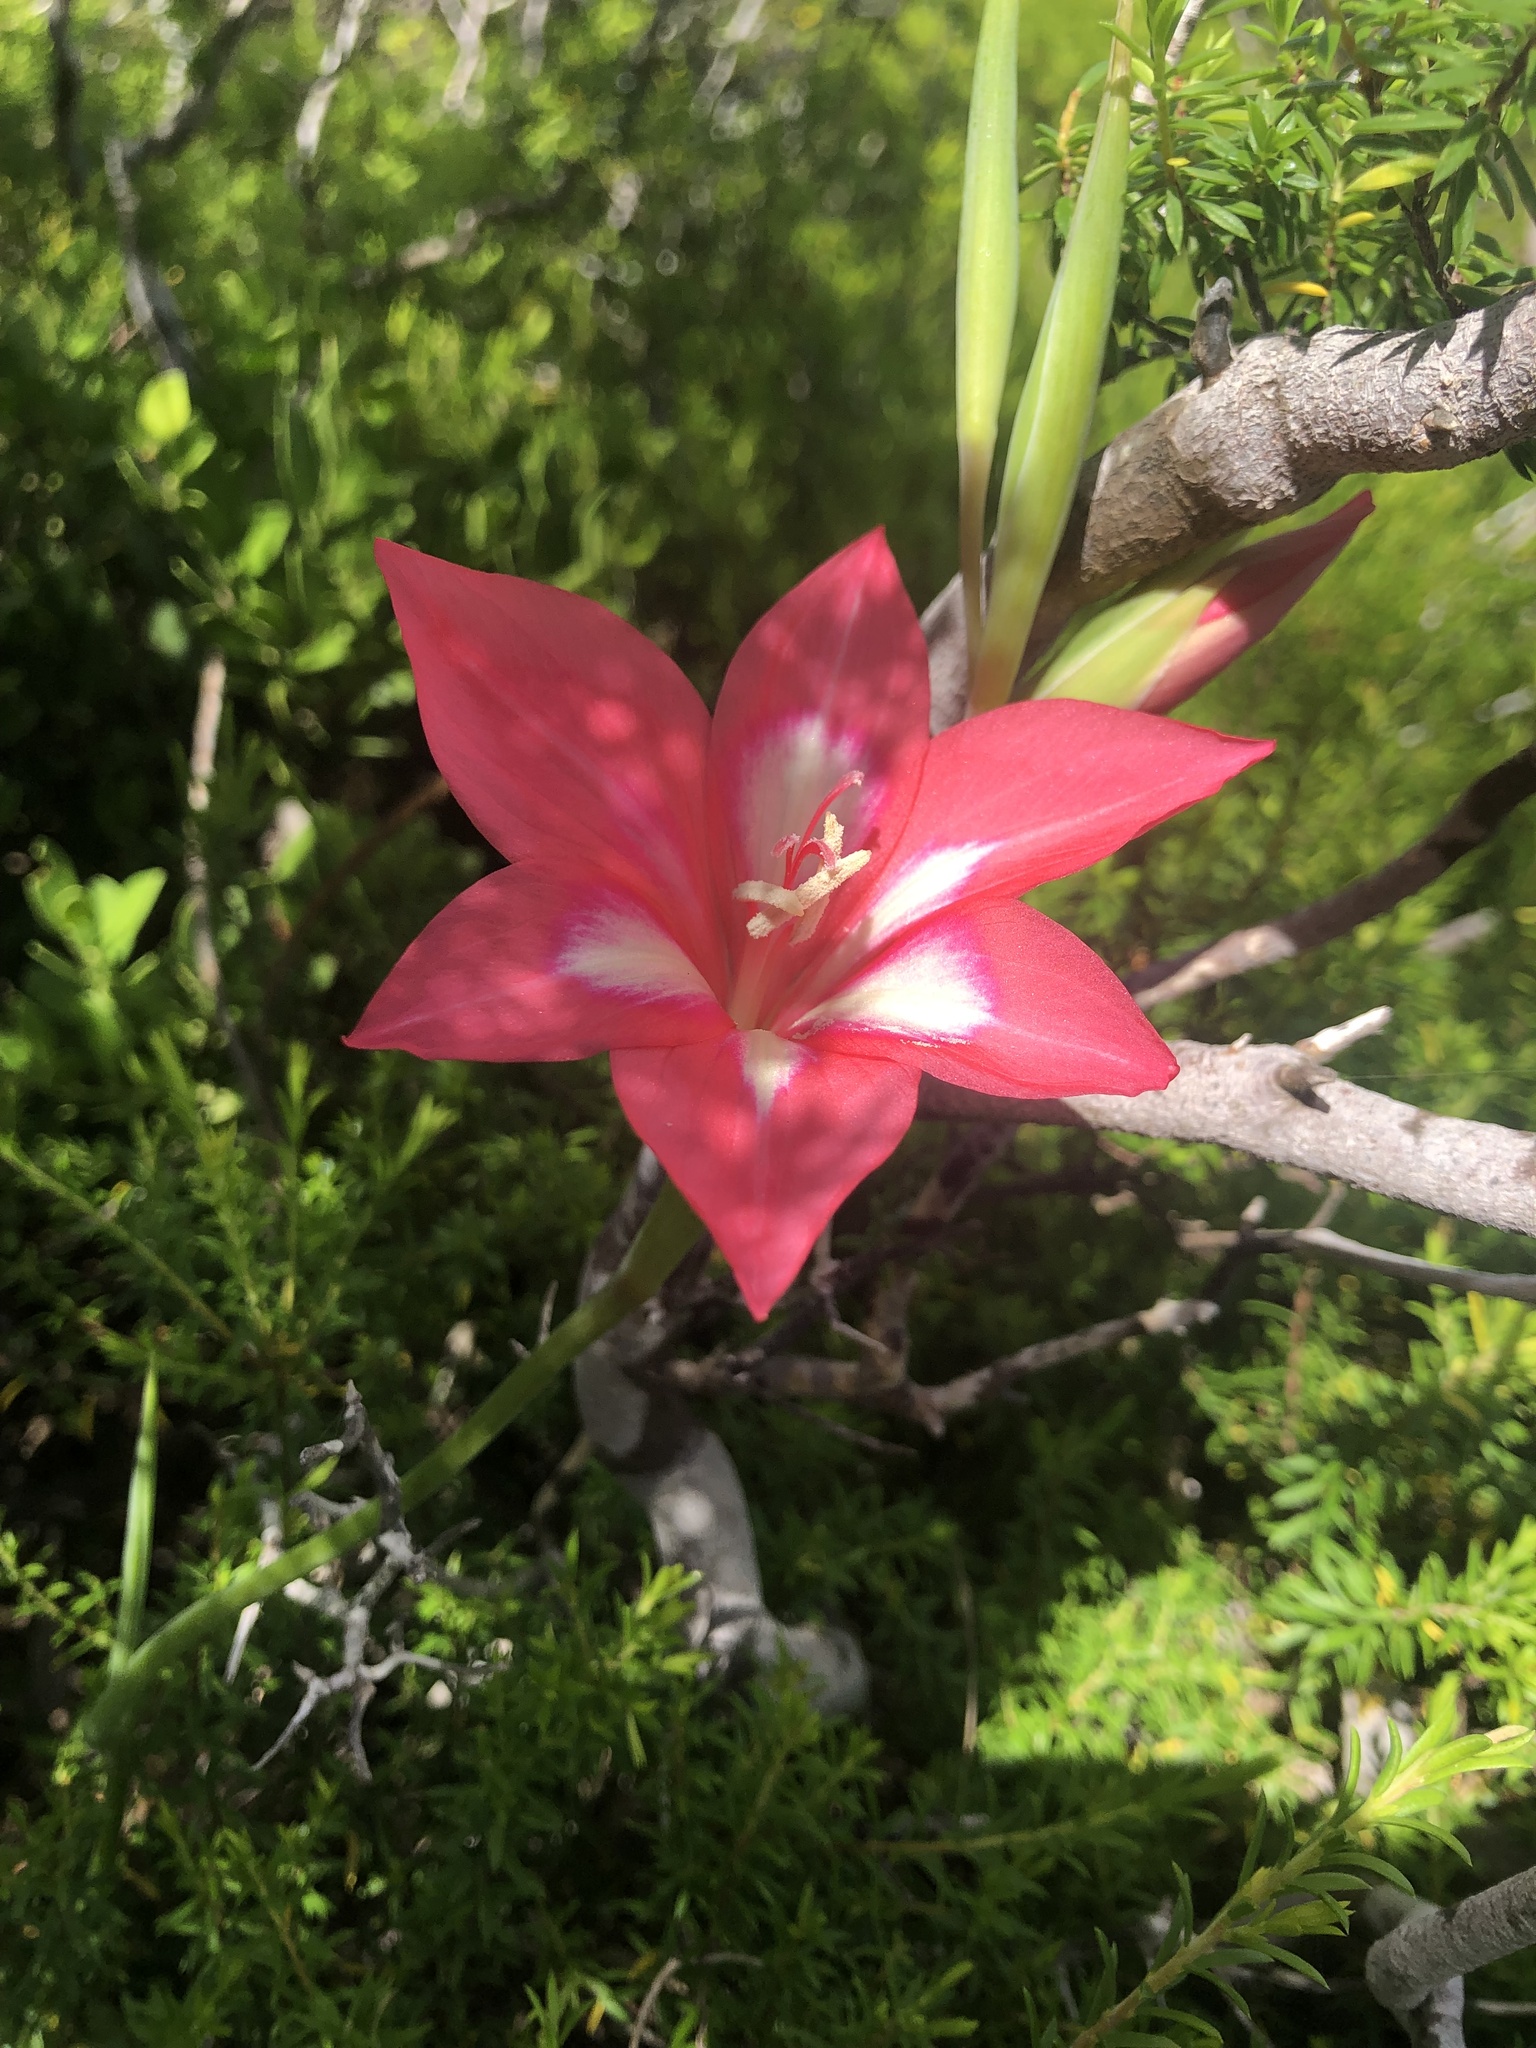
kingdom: Plantae
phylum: Tracheophyta
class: Liliopsida
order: Asparagales
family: Iridaceae
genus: Gladiolus
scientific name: Gladiolus carmineus
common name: Hermanus gladiolus
